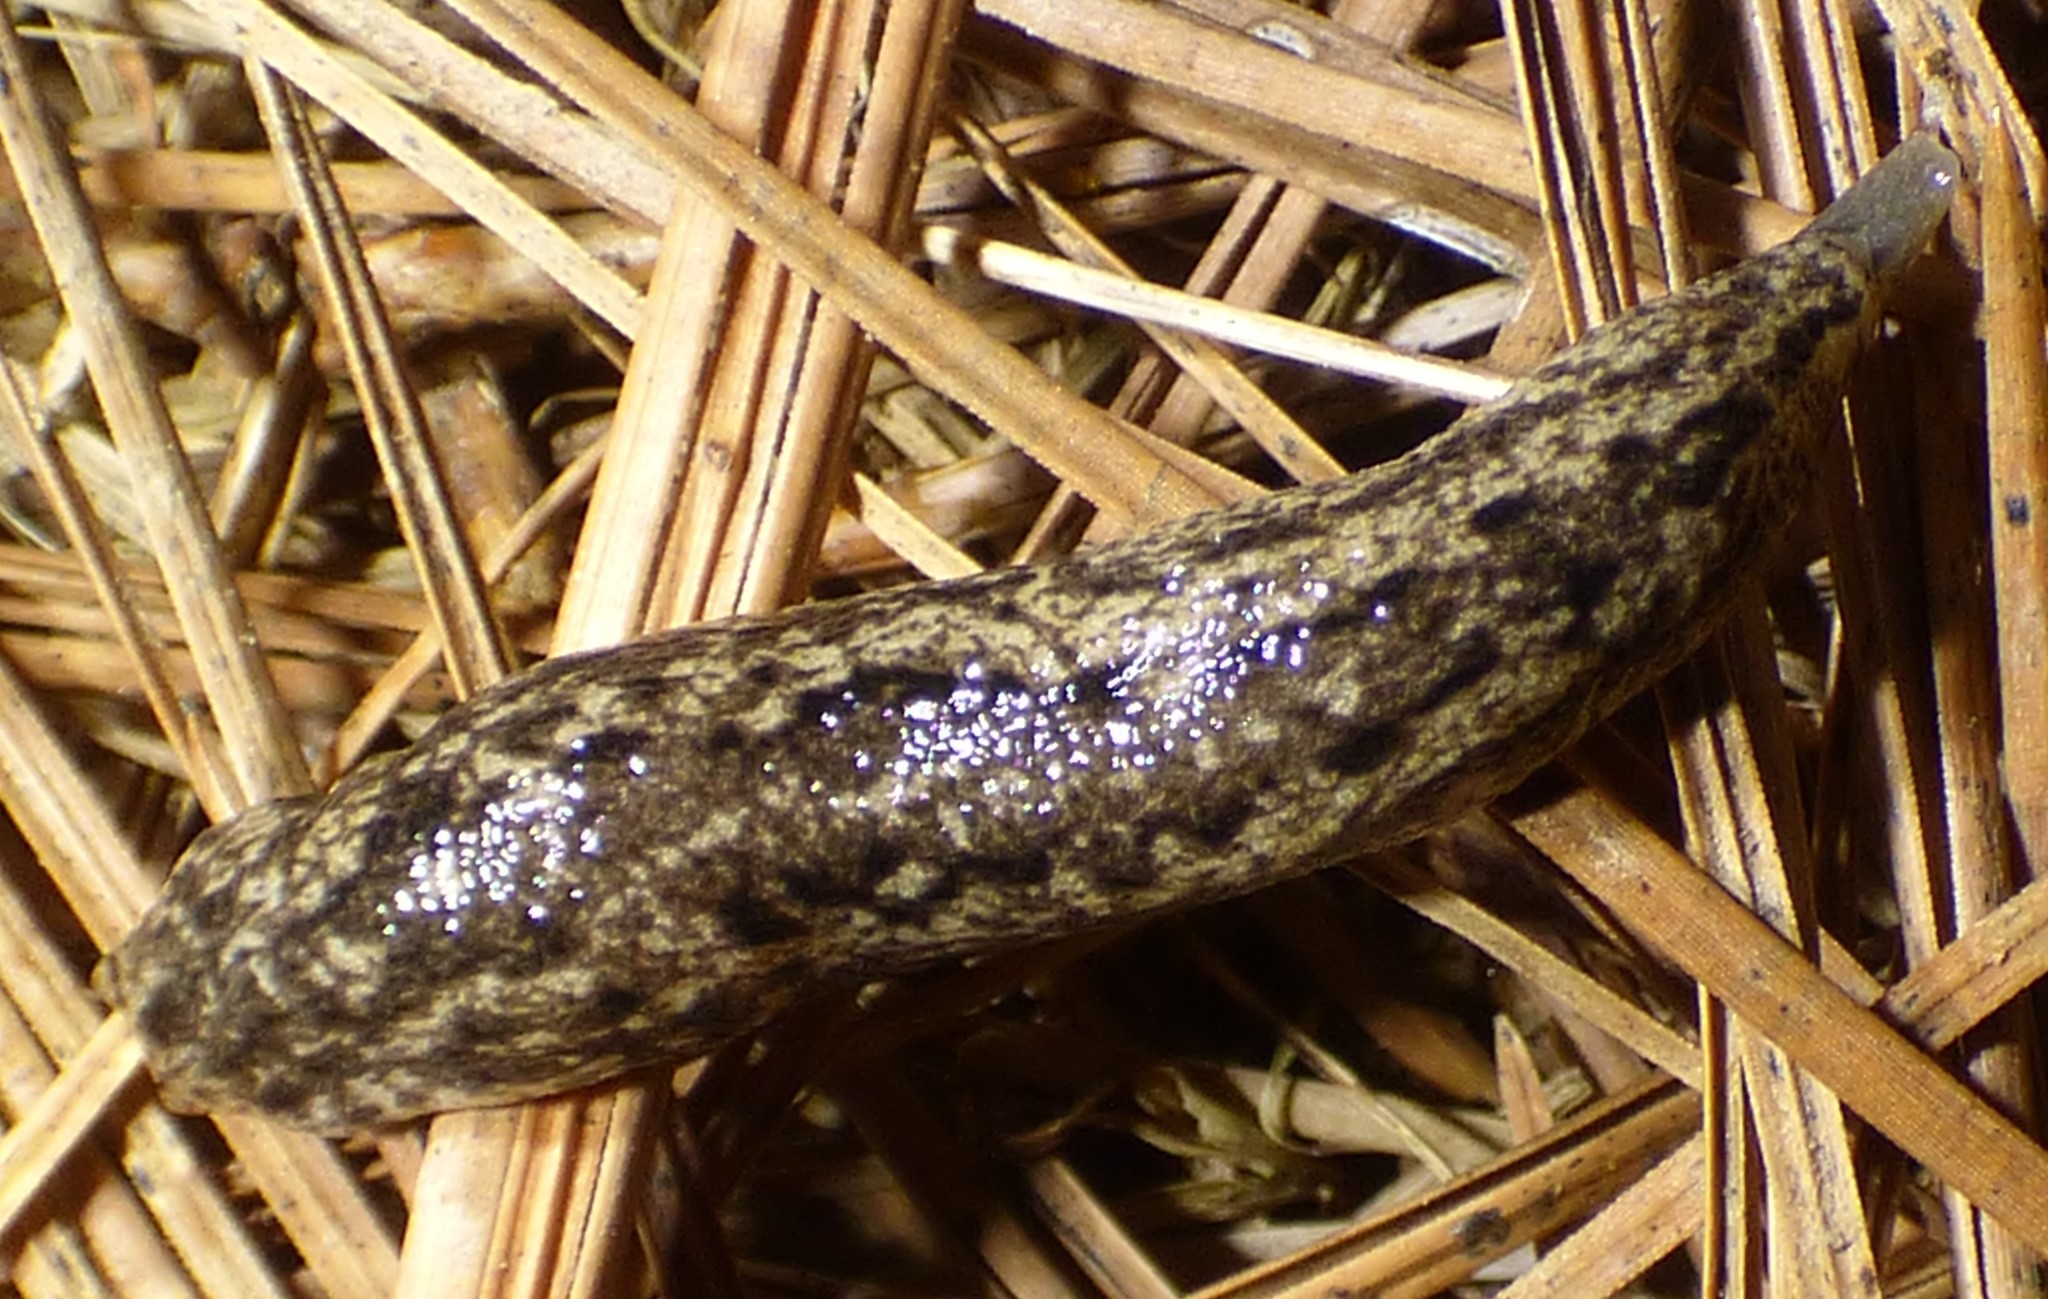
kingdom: Animalia
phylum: Mollusca
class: Gastropoda
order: Stylommatophora
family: Philomycidae
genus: Philomycus
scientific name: Philomycus carolinianus
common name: Carolina mantleslug
